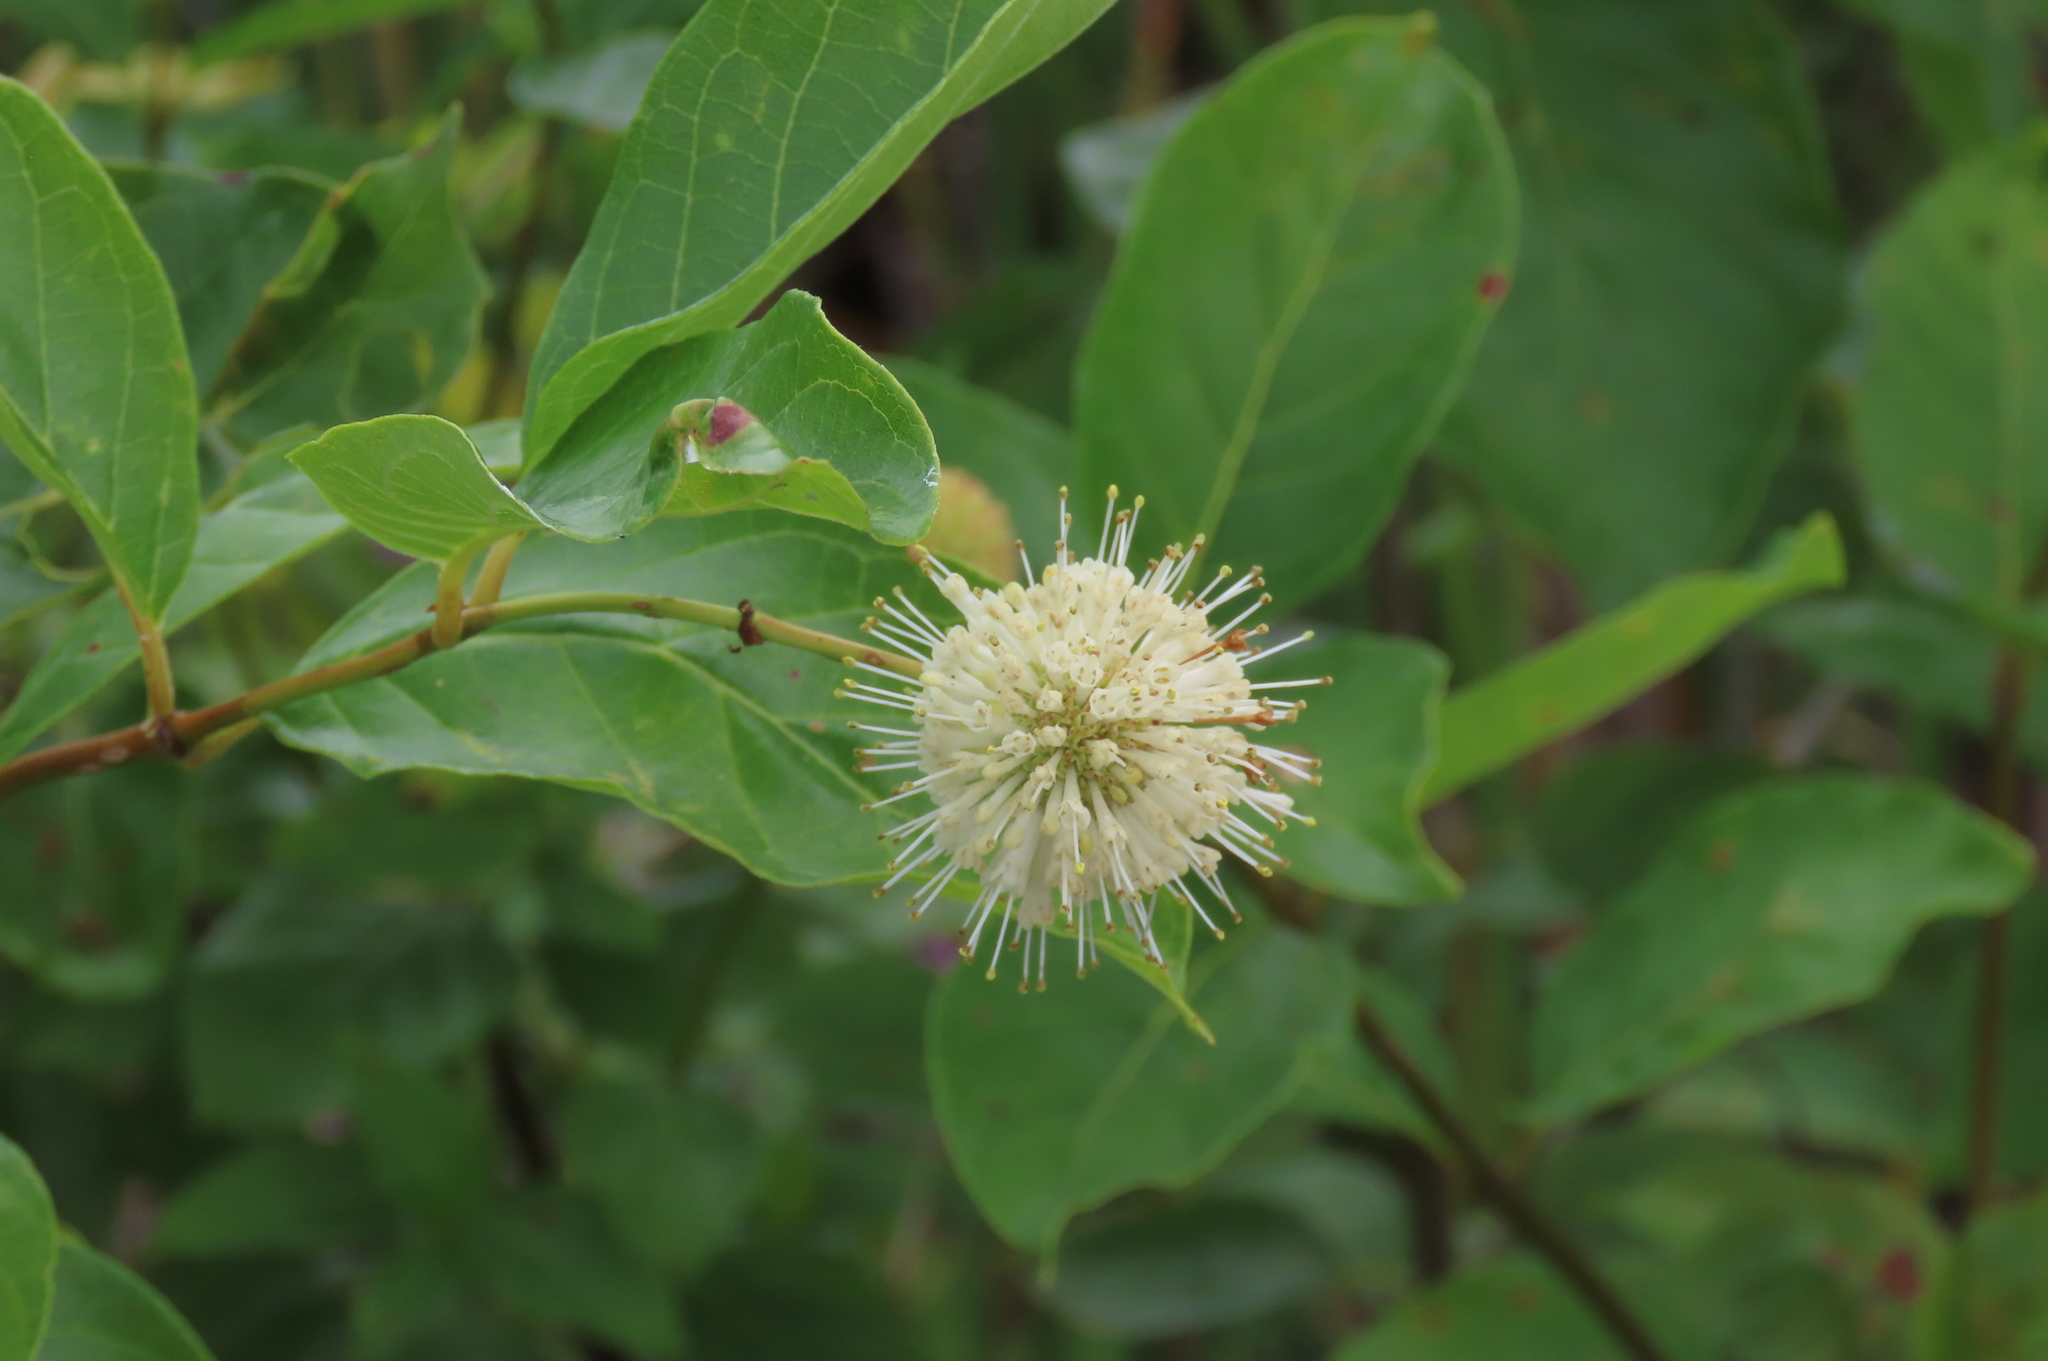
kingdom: Plantae
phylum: Tracheophyta
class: Magnoliopsida
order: Gentianales
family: Rubiaceae
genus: Cephalanthus
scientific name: Cephalanthus occidentalis
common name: Button-willow
